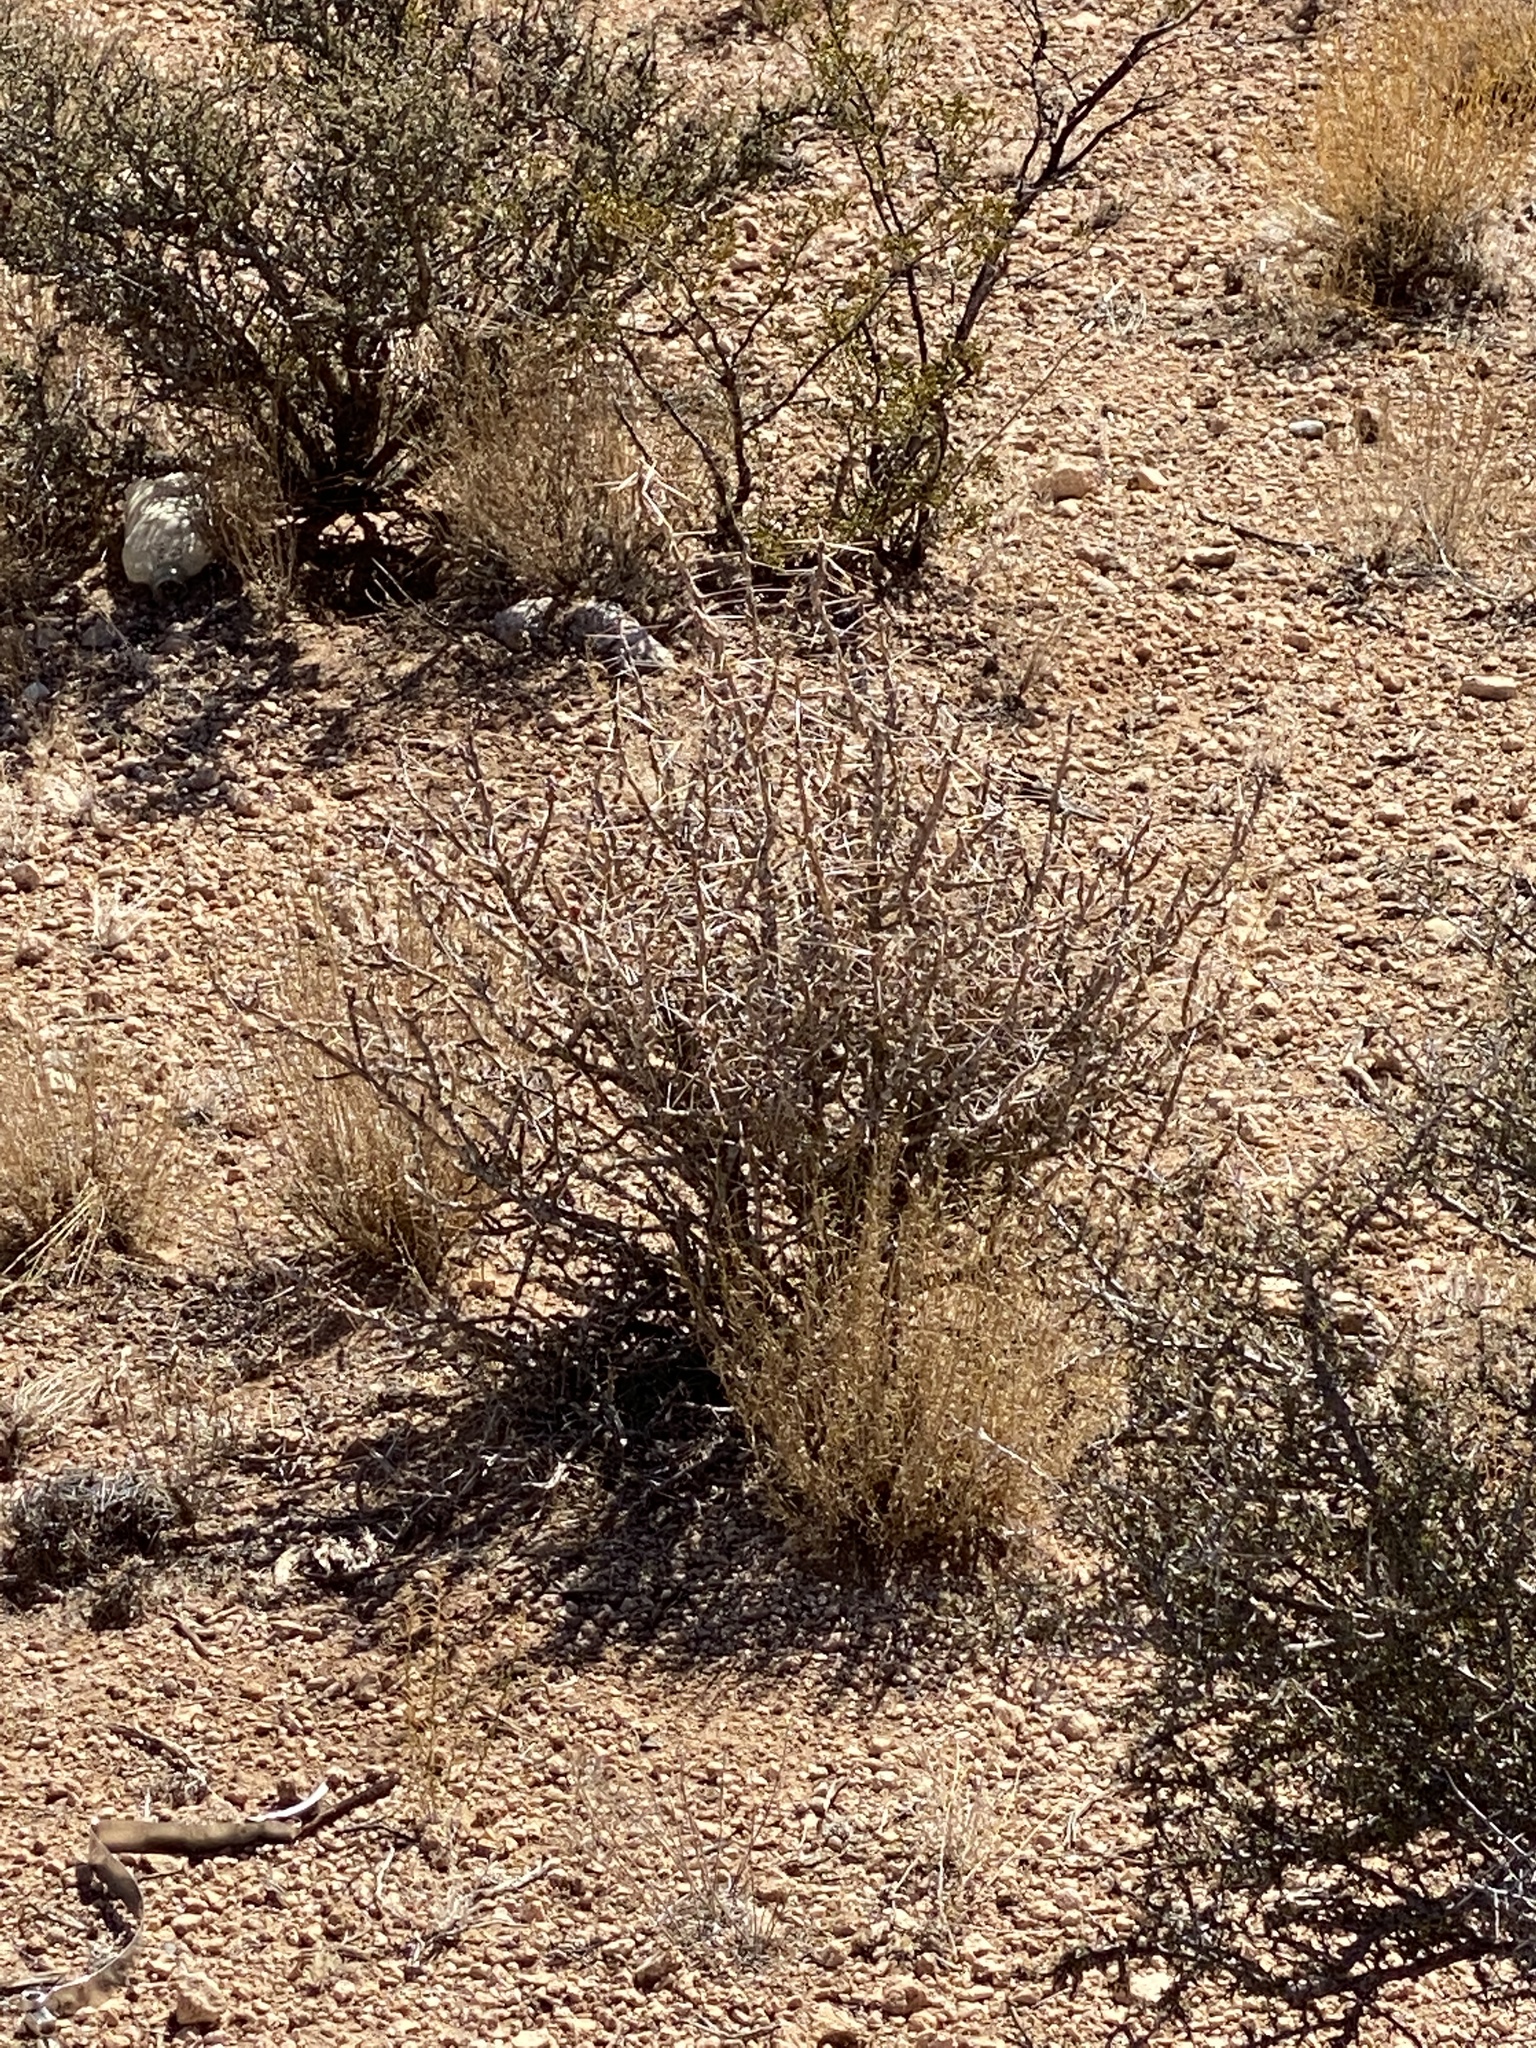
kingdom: Plantae
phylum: Tracheophyta
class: Magnoliopsida
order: Caryophyllales
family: Cactaceae
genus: Cylindropuntia
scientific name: Cylindropuntia leptocaulis
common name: Christmas cactus
